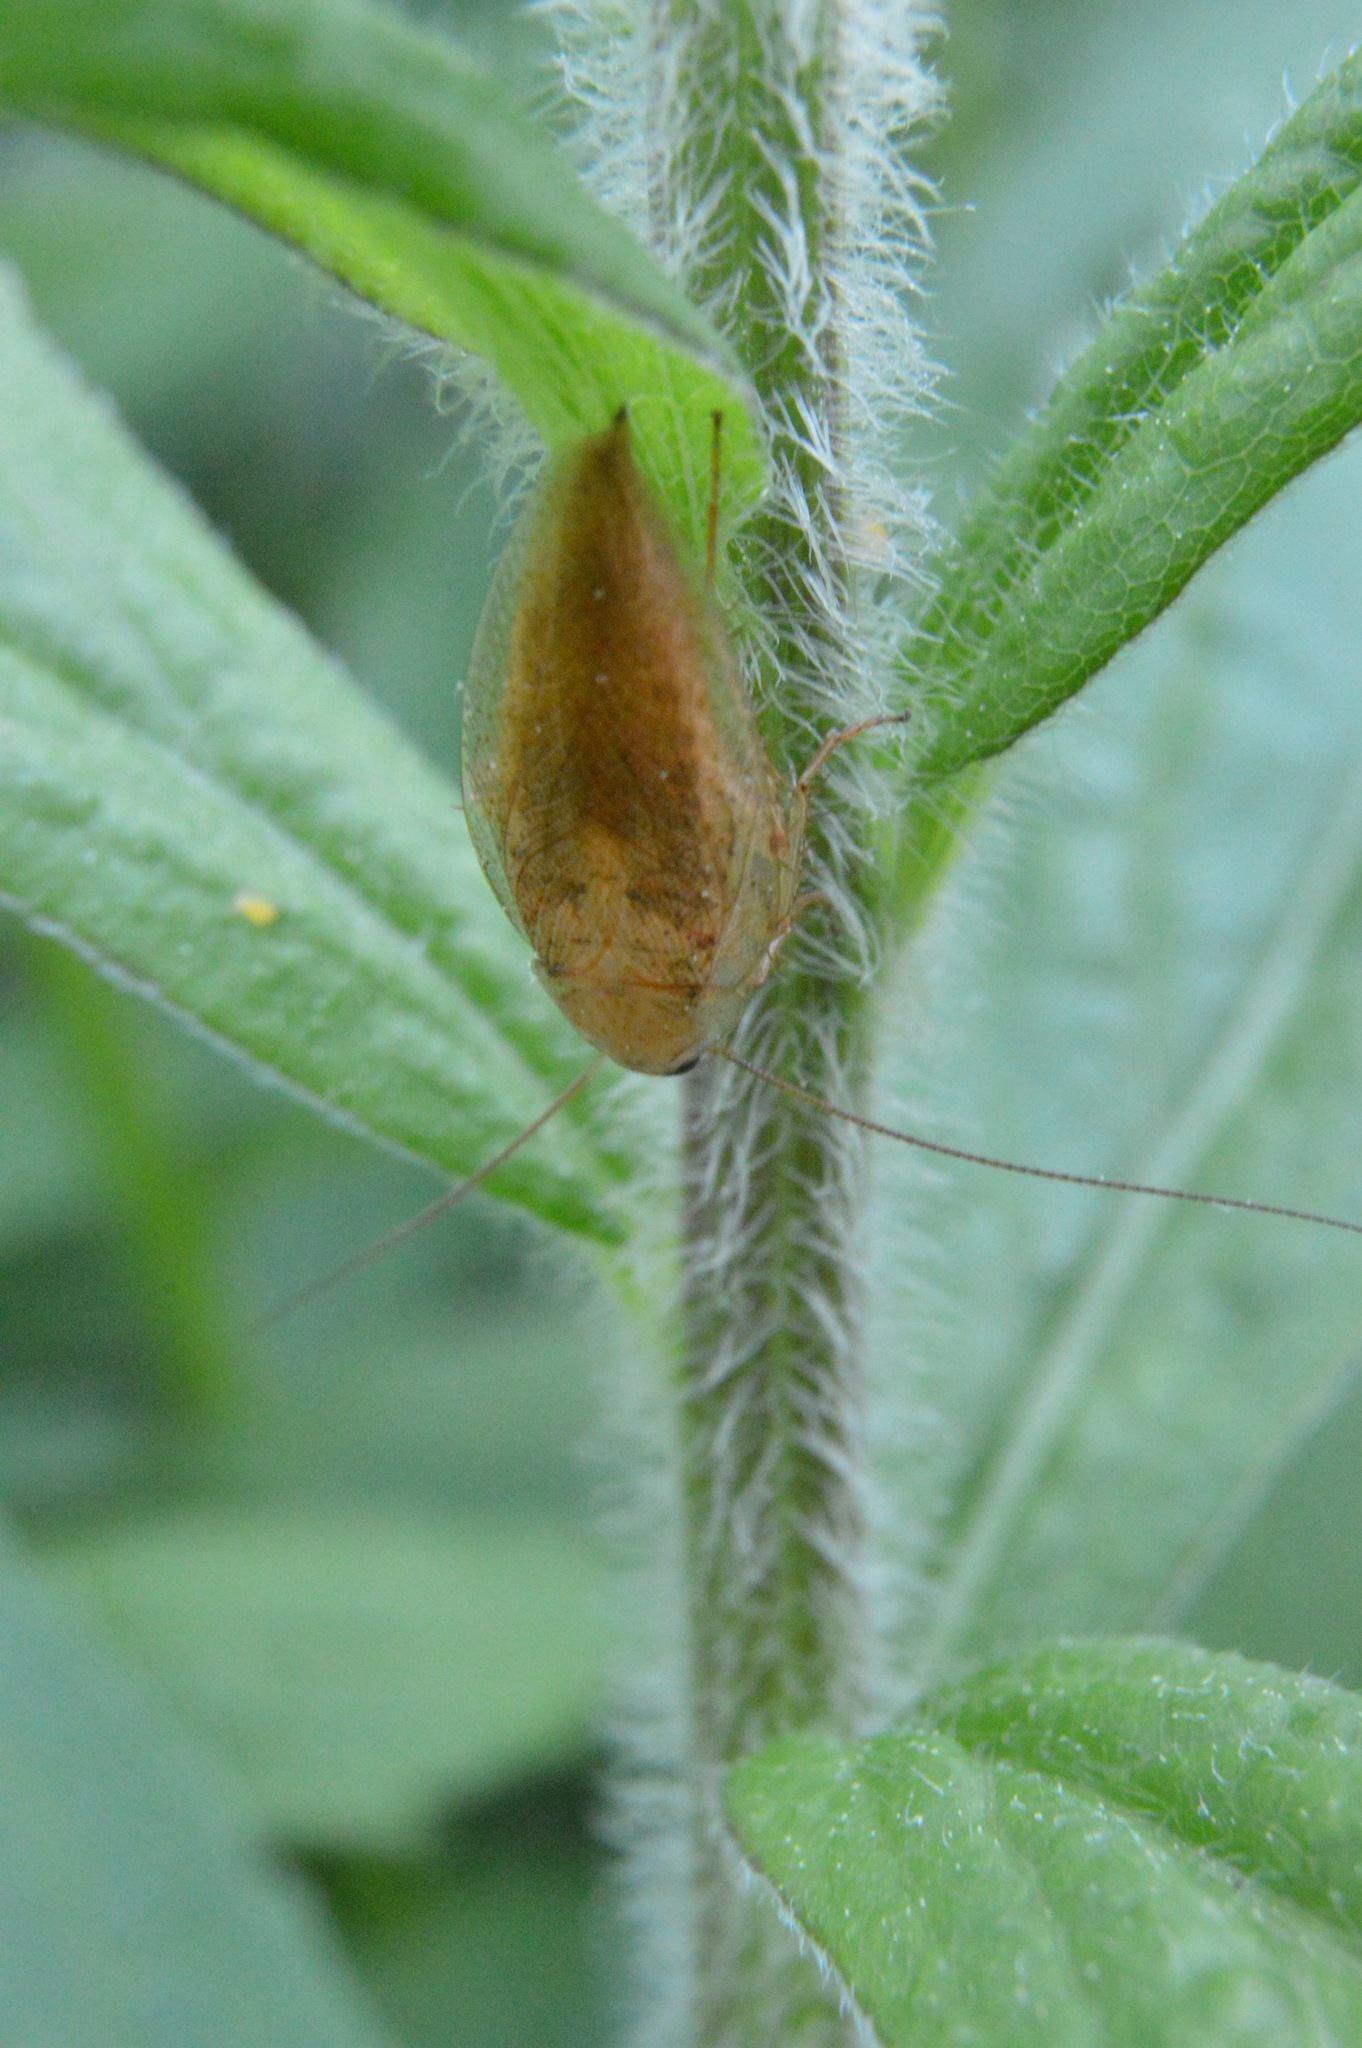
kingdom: Animalia
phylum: Arthropoda
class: Insecta
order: Blattodea
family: Ectobiidae
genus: Ectobius
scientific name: Ectobius pallidus
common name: Tawny cockroach
